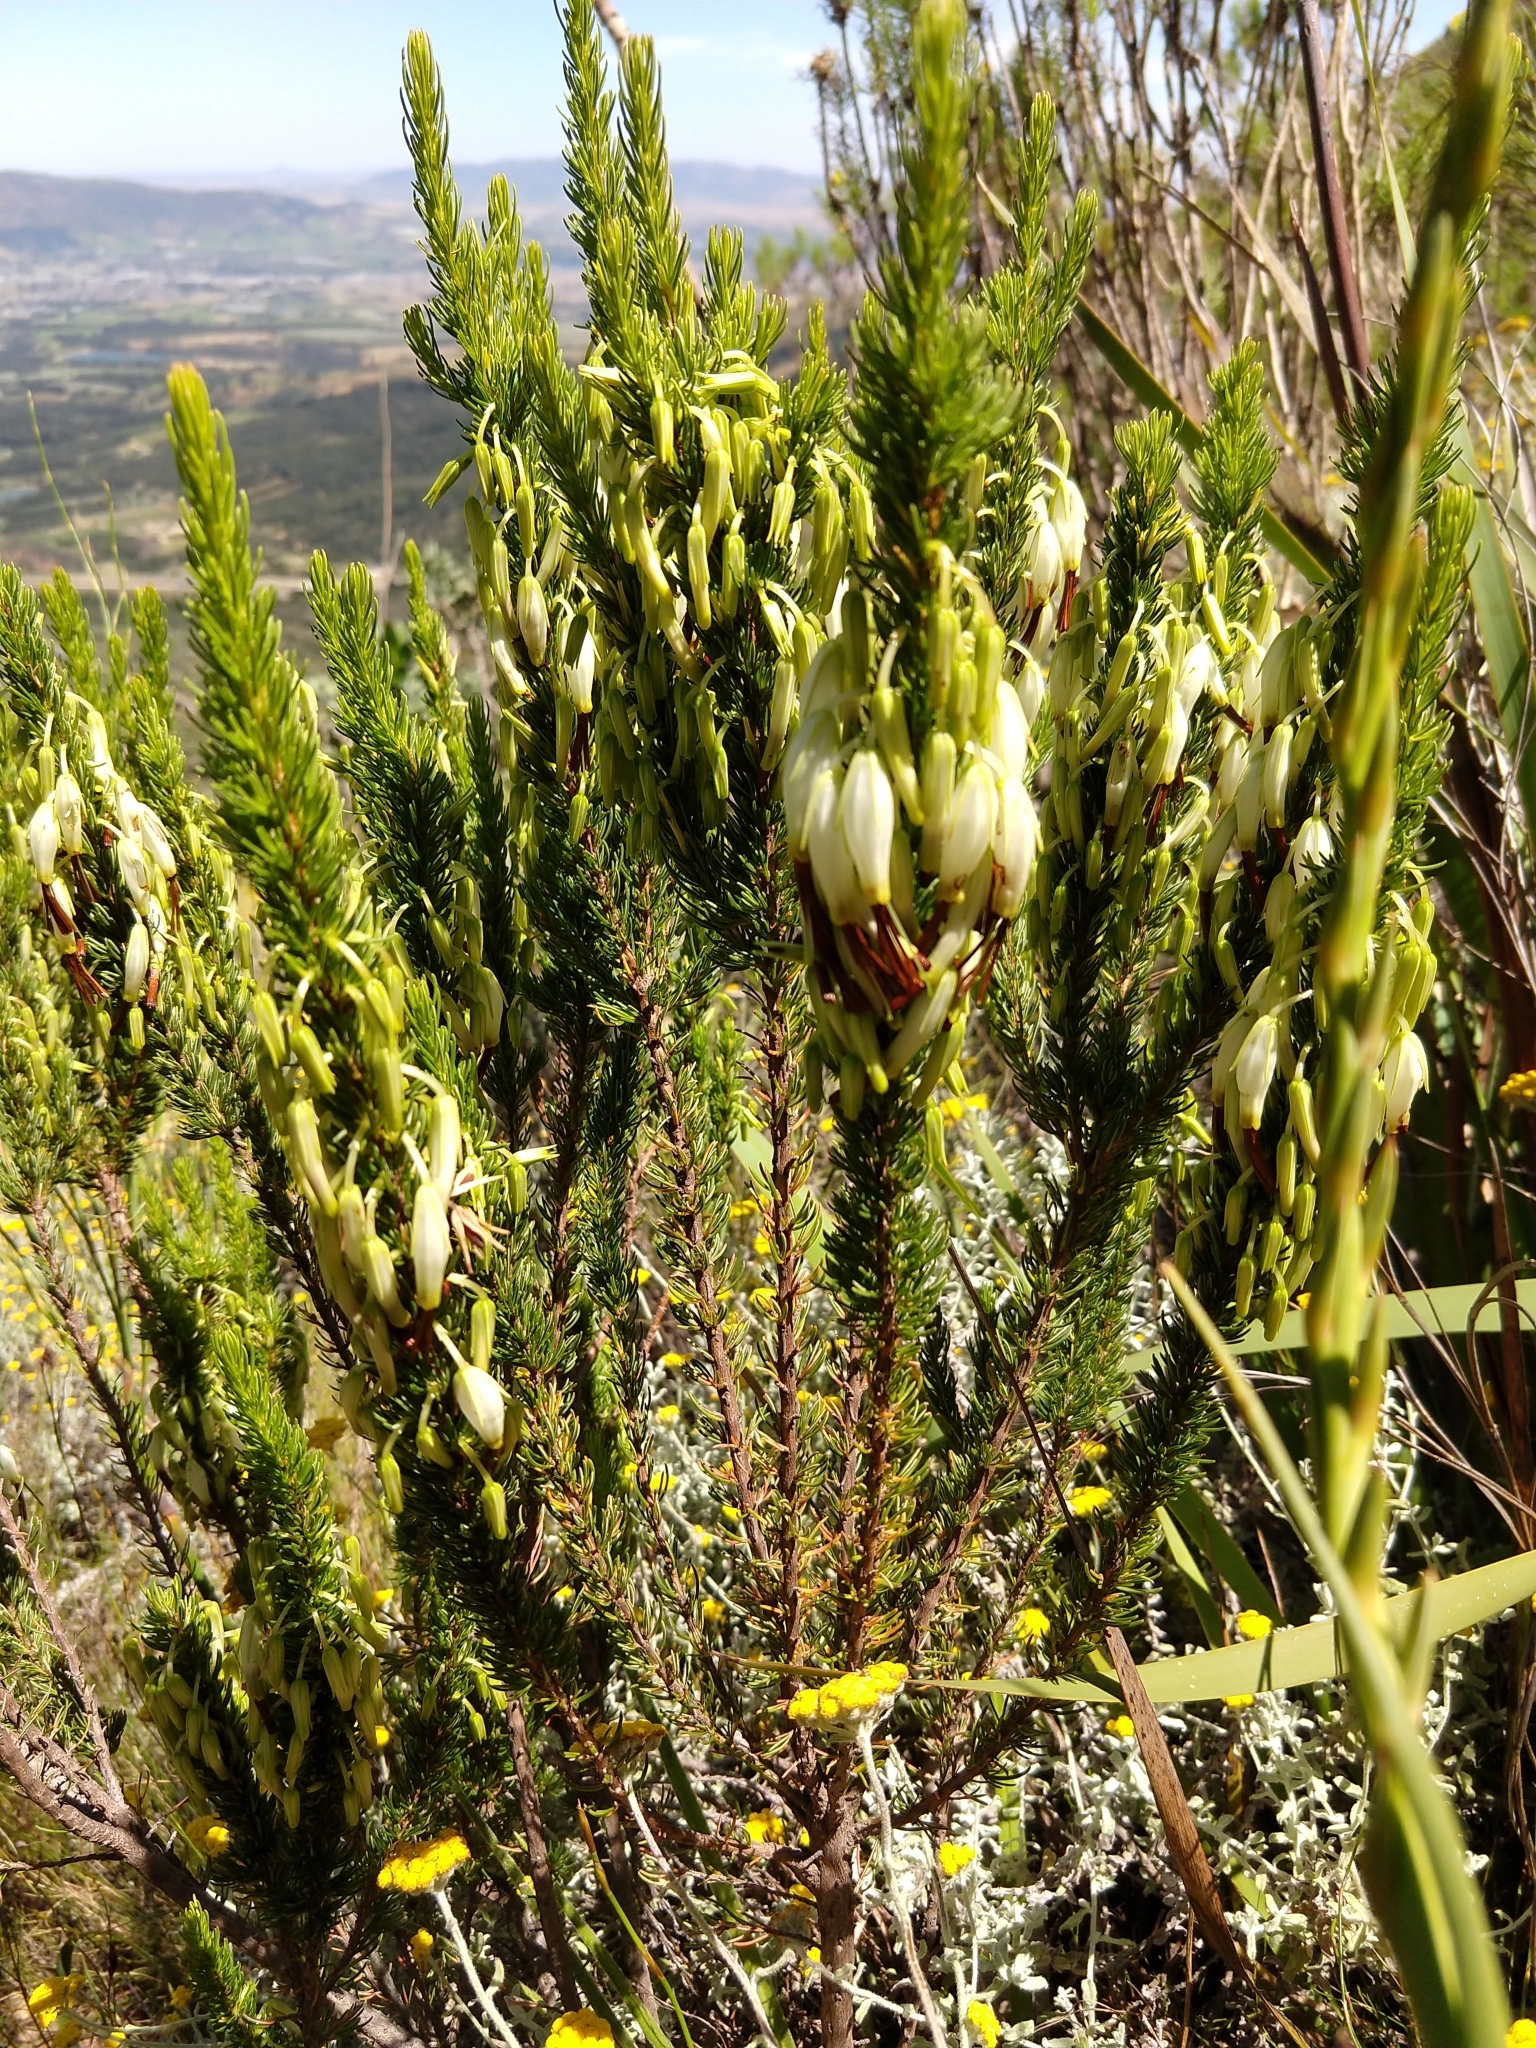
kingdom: Plantae
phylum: Tracheophyta
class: Magnoliopsida
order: Ericales
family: Ericaceae
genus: Erica
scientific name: Erica plukenetii
